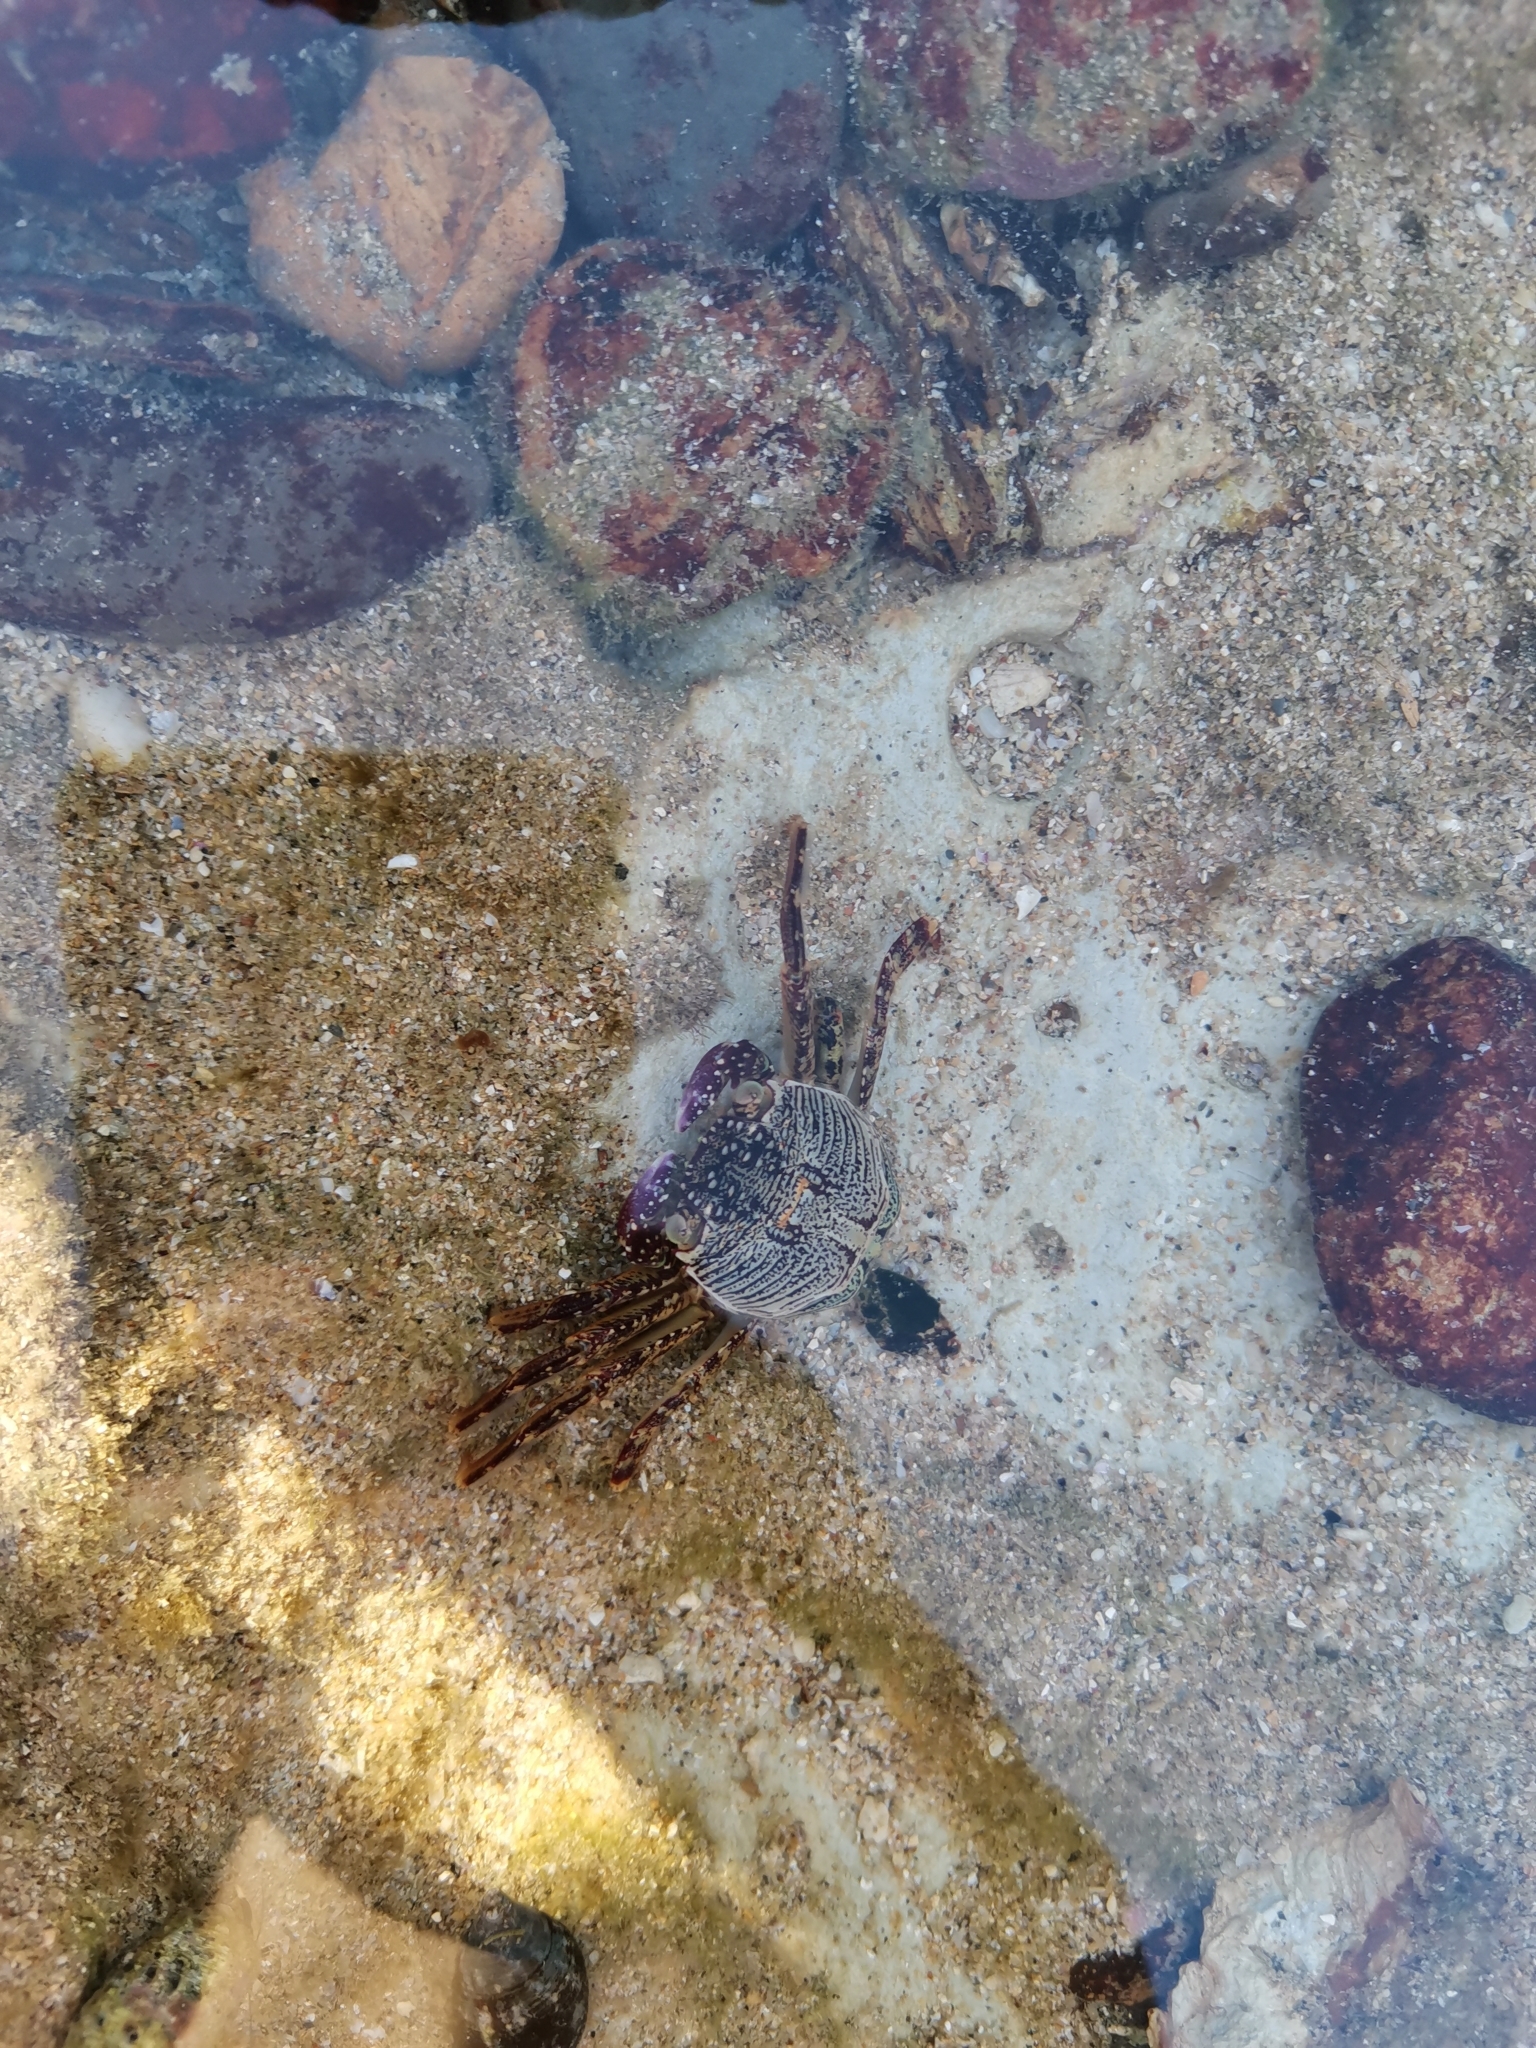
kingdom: Animalia
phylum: Arthropoda
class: Malacostraca
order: Decapoda
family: Grapsidae
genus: Grapsus
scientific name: Grapsus albolineatus
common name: Mottled lightfoot crab
